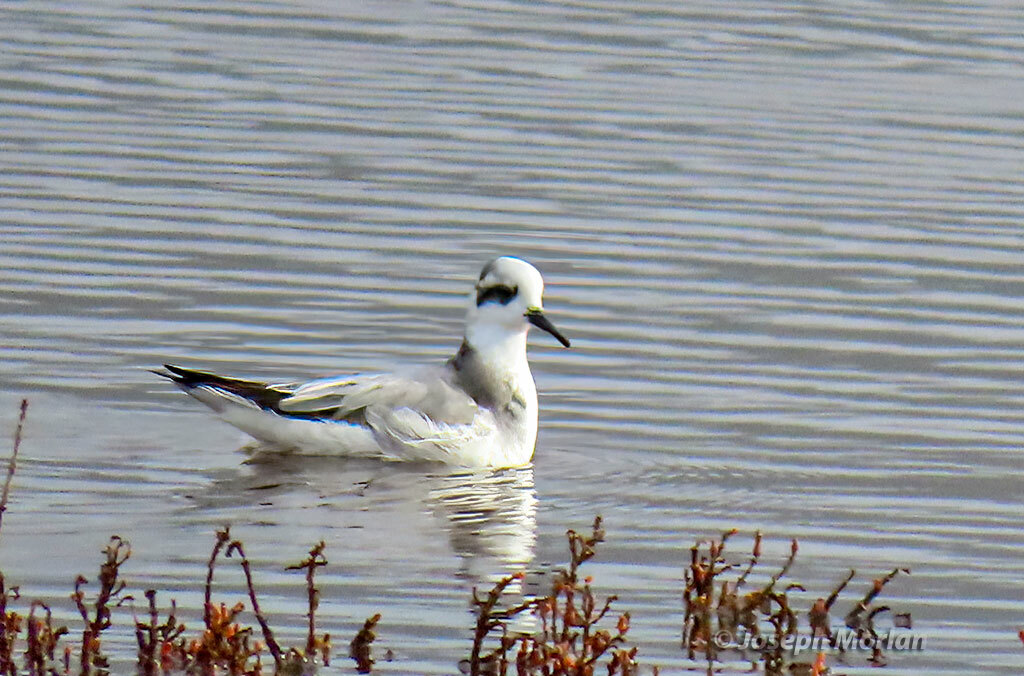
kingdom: Animalia
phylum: Chordata
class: Aves
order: Charadriiformes
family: Scolopacidae
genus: Phalaropus
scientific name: Phalaropus fulicarius
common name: Red phalarope
